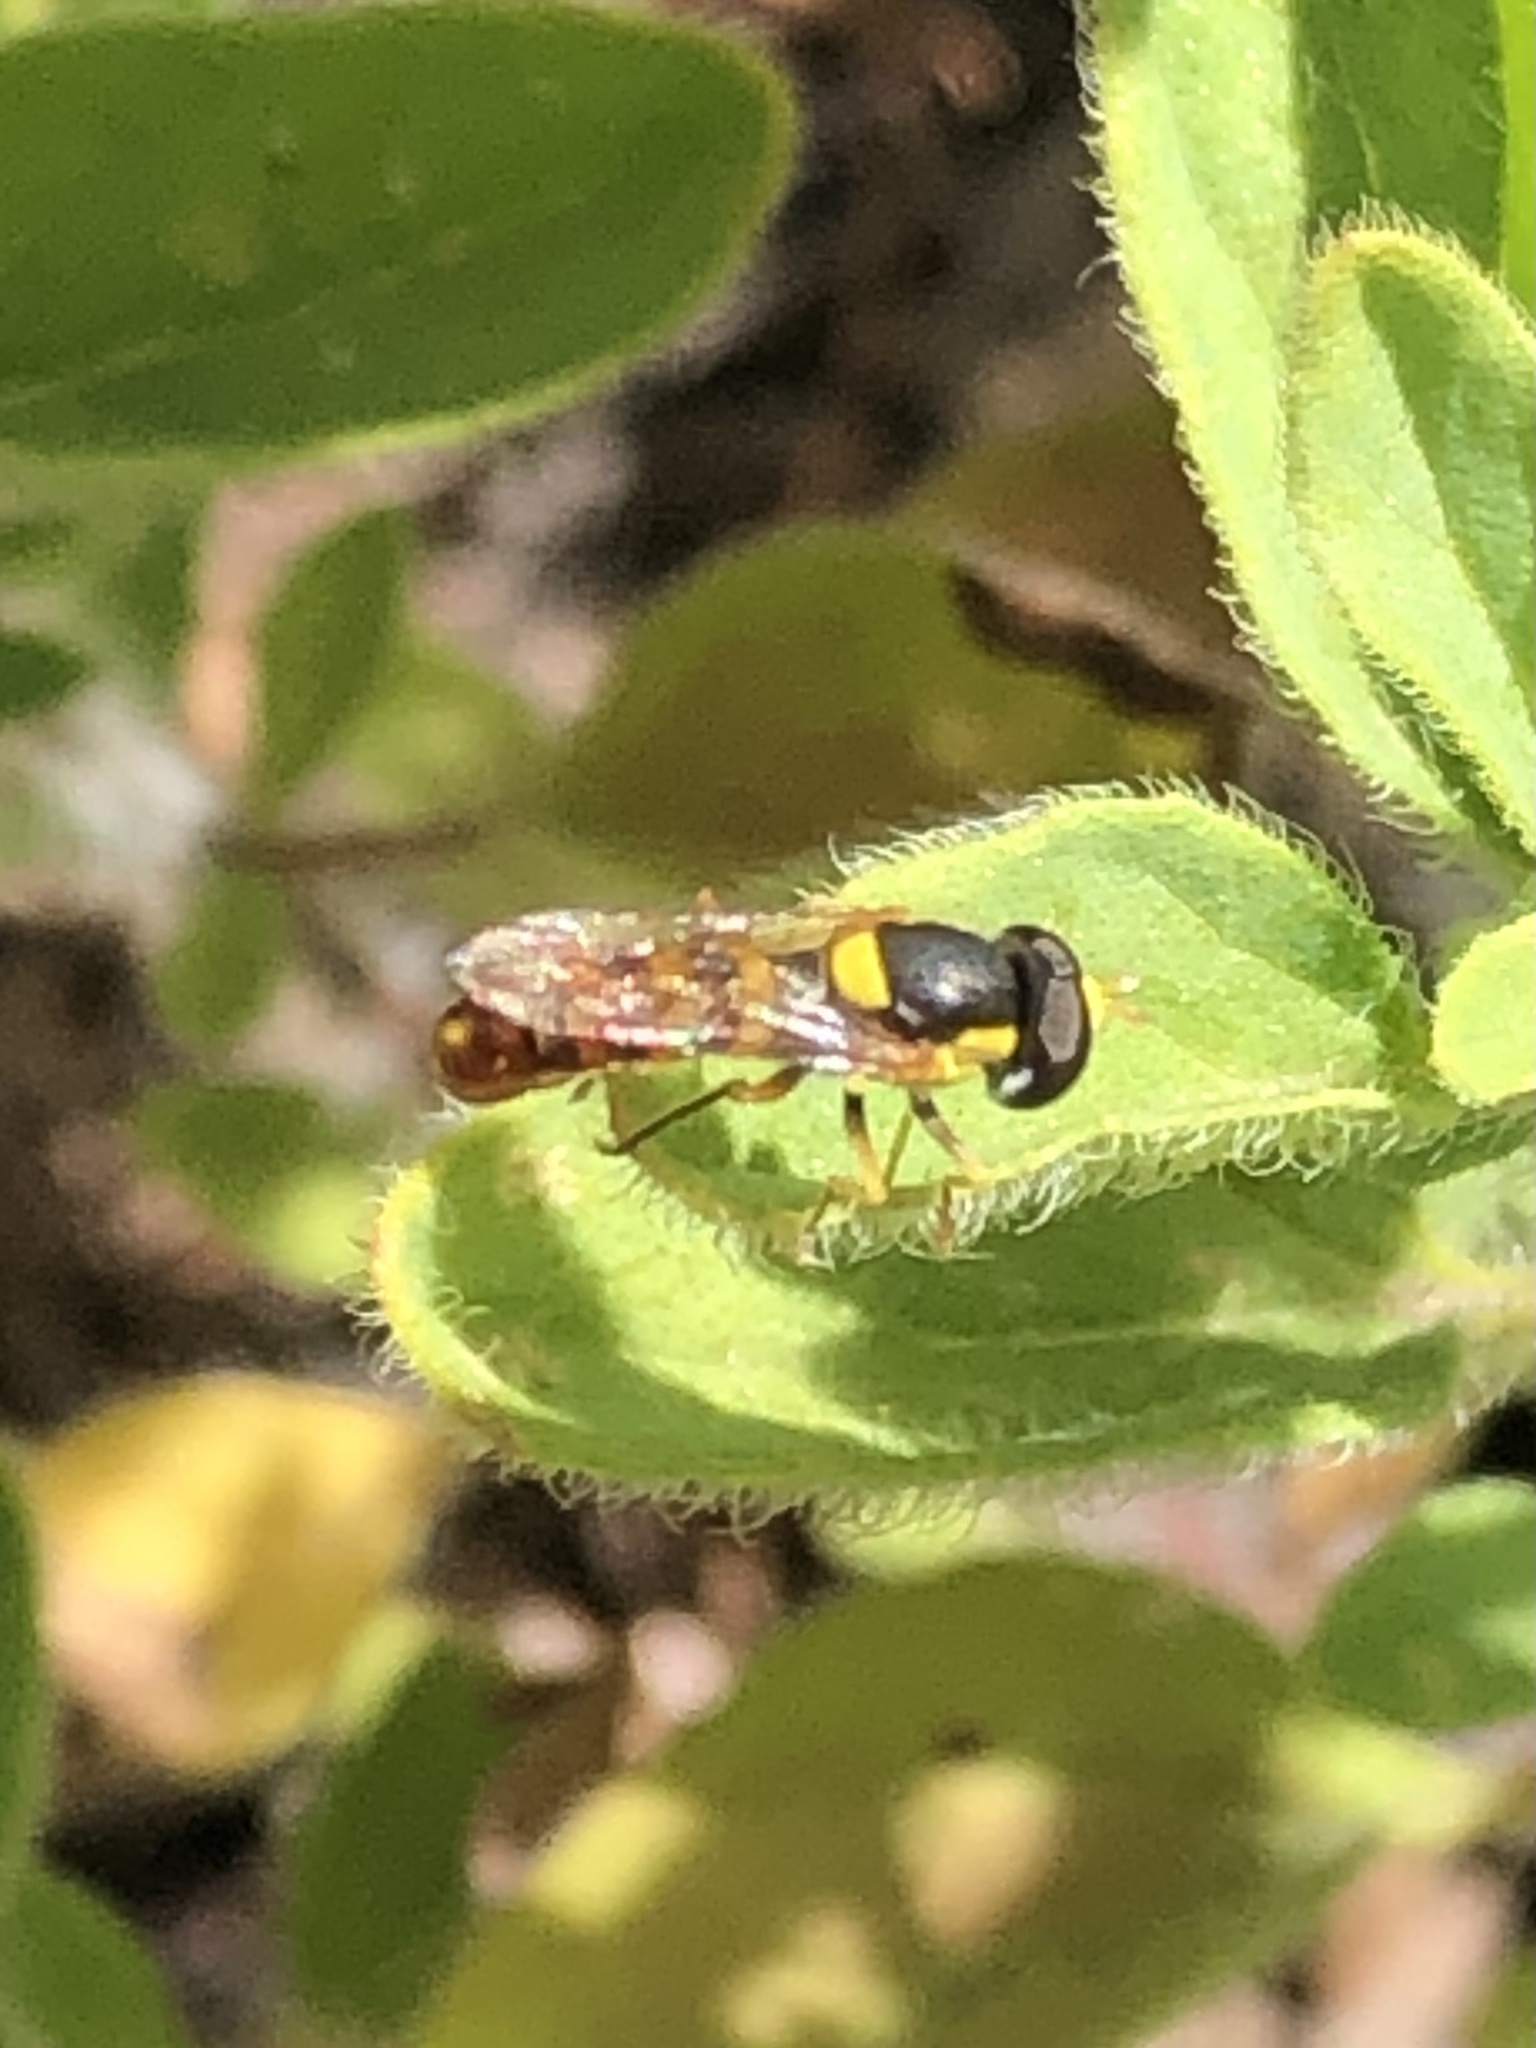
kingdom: Animalia
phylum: Arthropoda
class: Insecta
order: Diptera
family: Syrphidae
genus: Sphaerophoria
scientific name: Sphaerophoria sulphuripes
